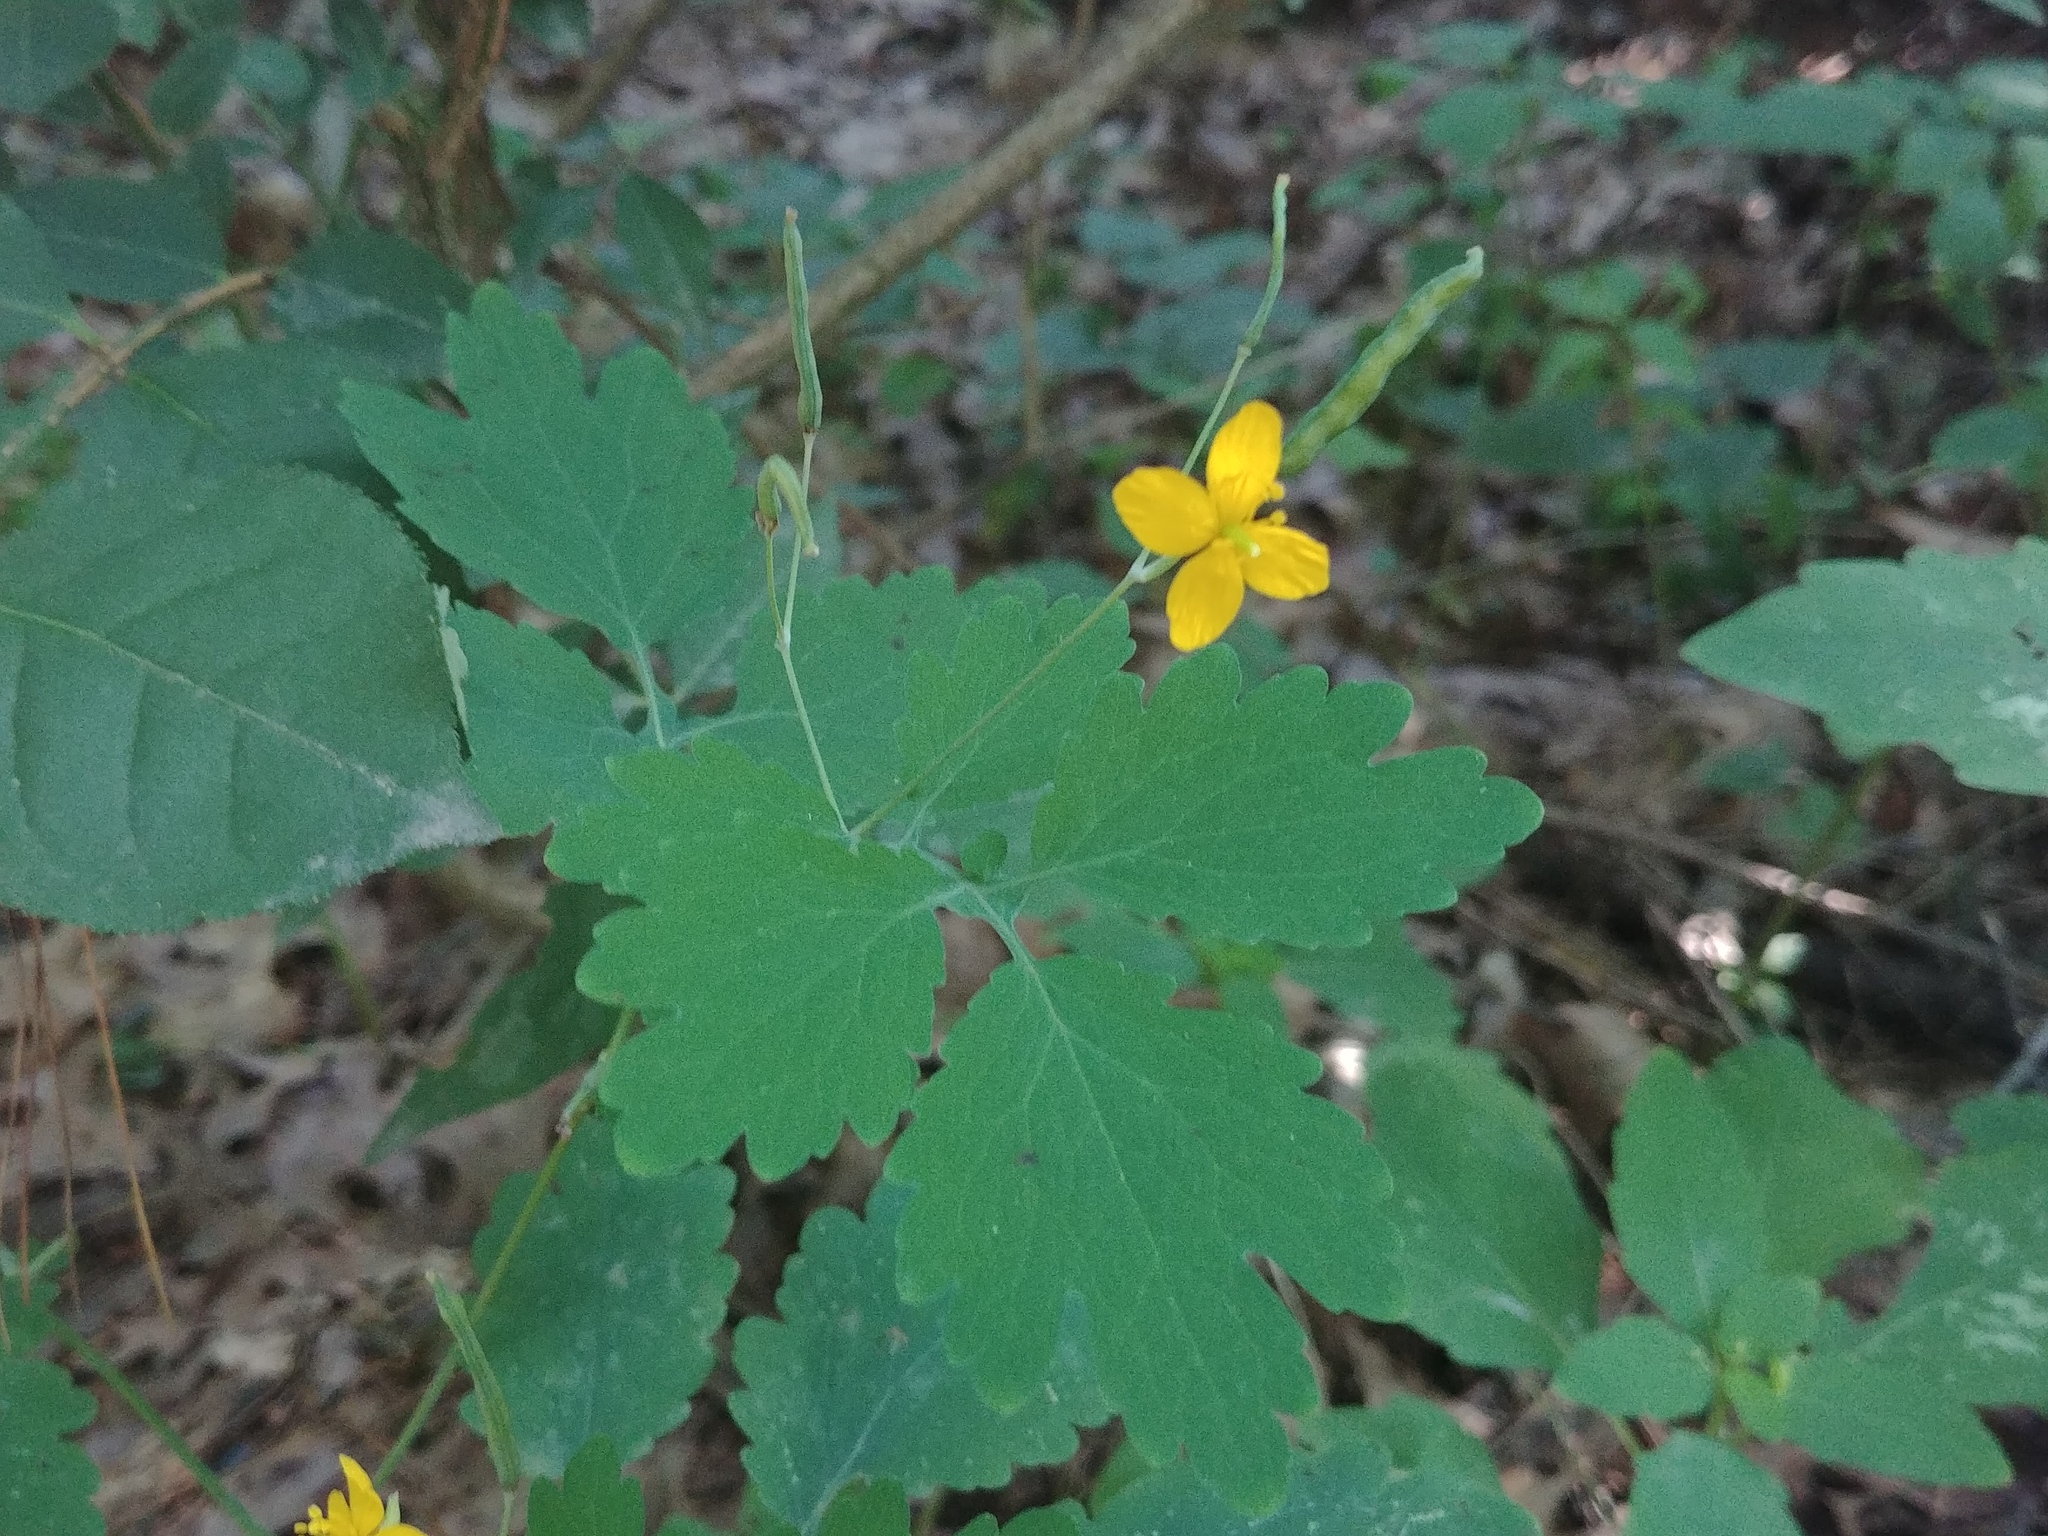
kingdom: Plantae
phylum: Tracheophyta
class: Magnoliopsida
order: Ranunculales
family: Papaveraceae
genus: Chelidonium
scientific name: Chelidonium majus
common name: Greater celandine
